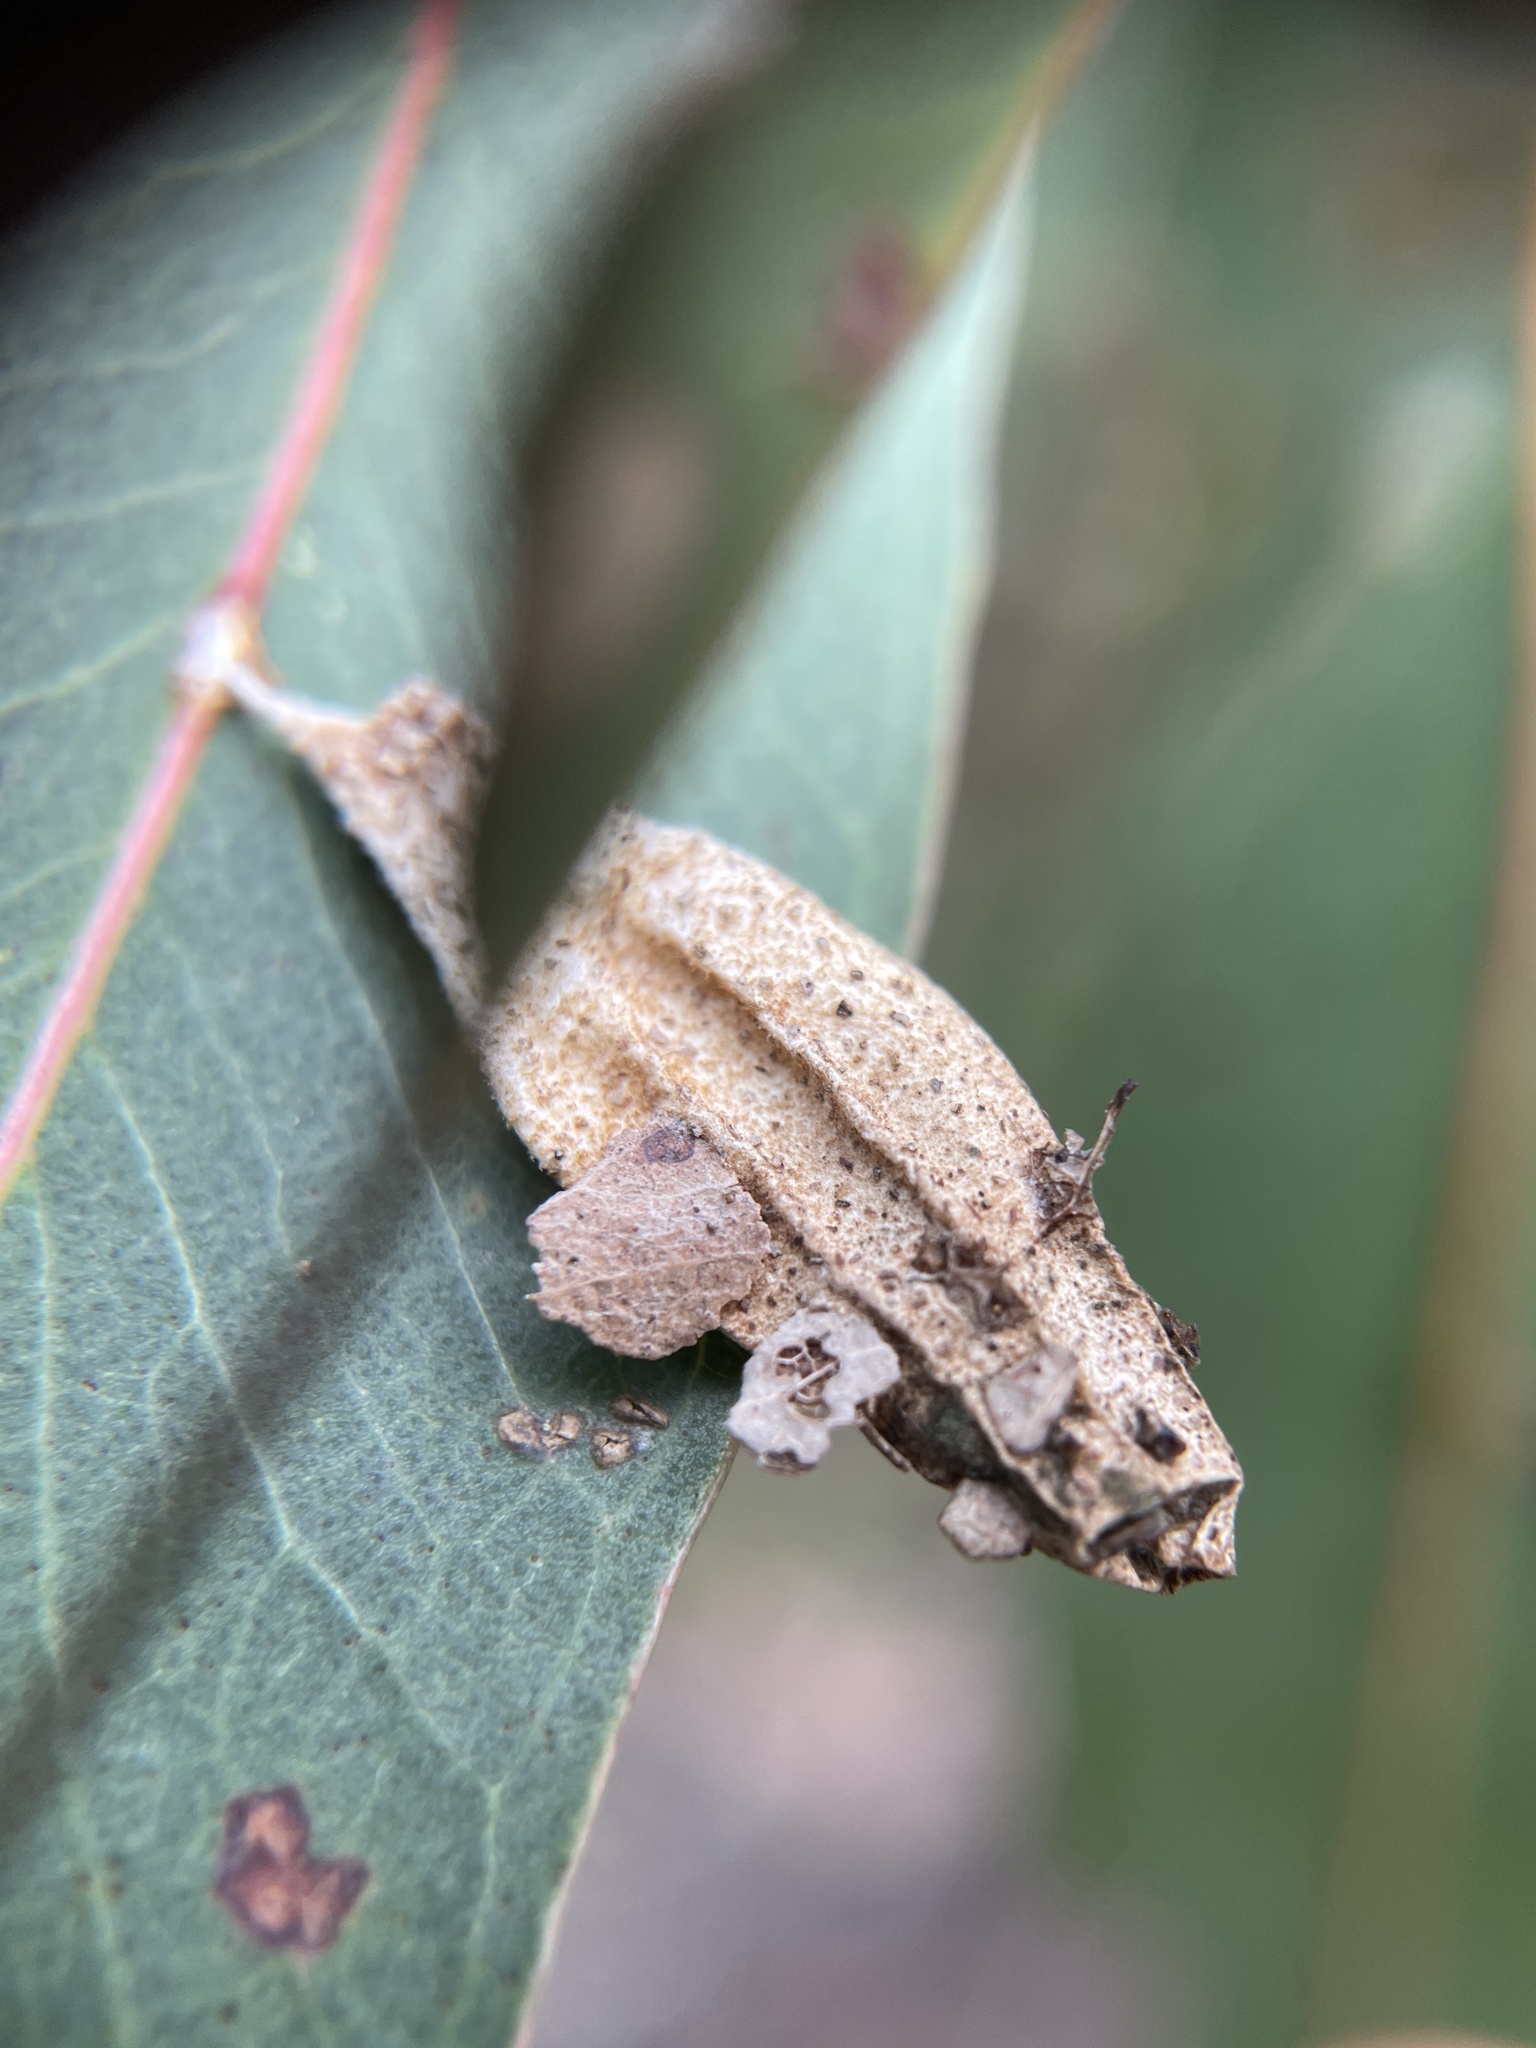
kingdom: Animalia
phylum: Arthropoda
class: Insecta
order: Lepidoptera
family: Psychidae
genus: Hyalarcta
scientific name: Hyalarcta nigrescens
